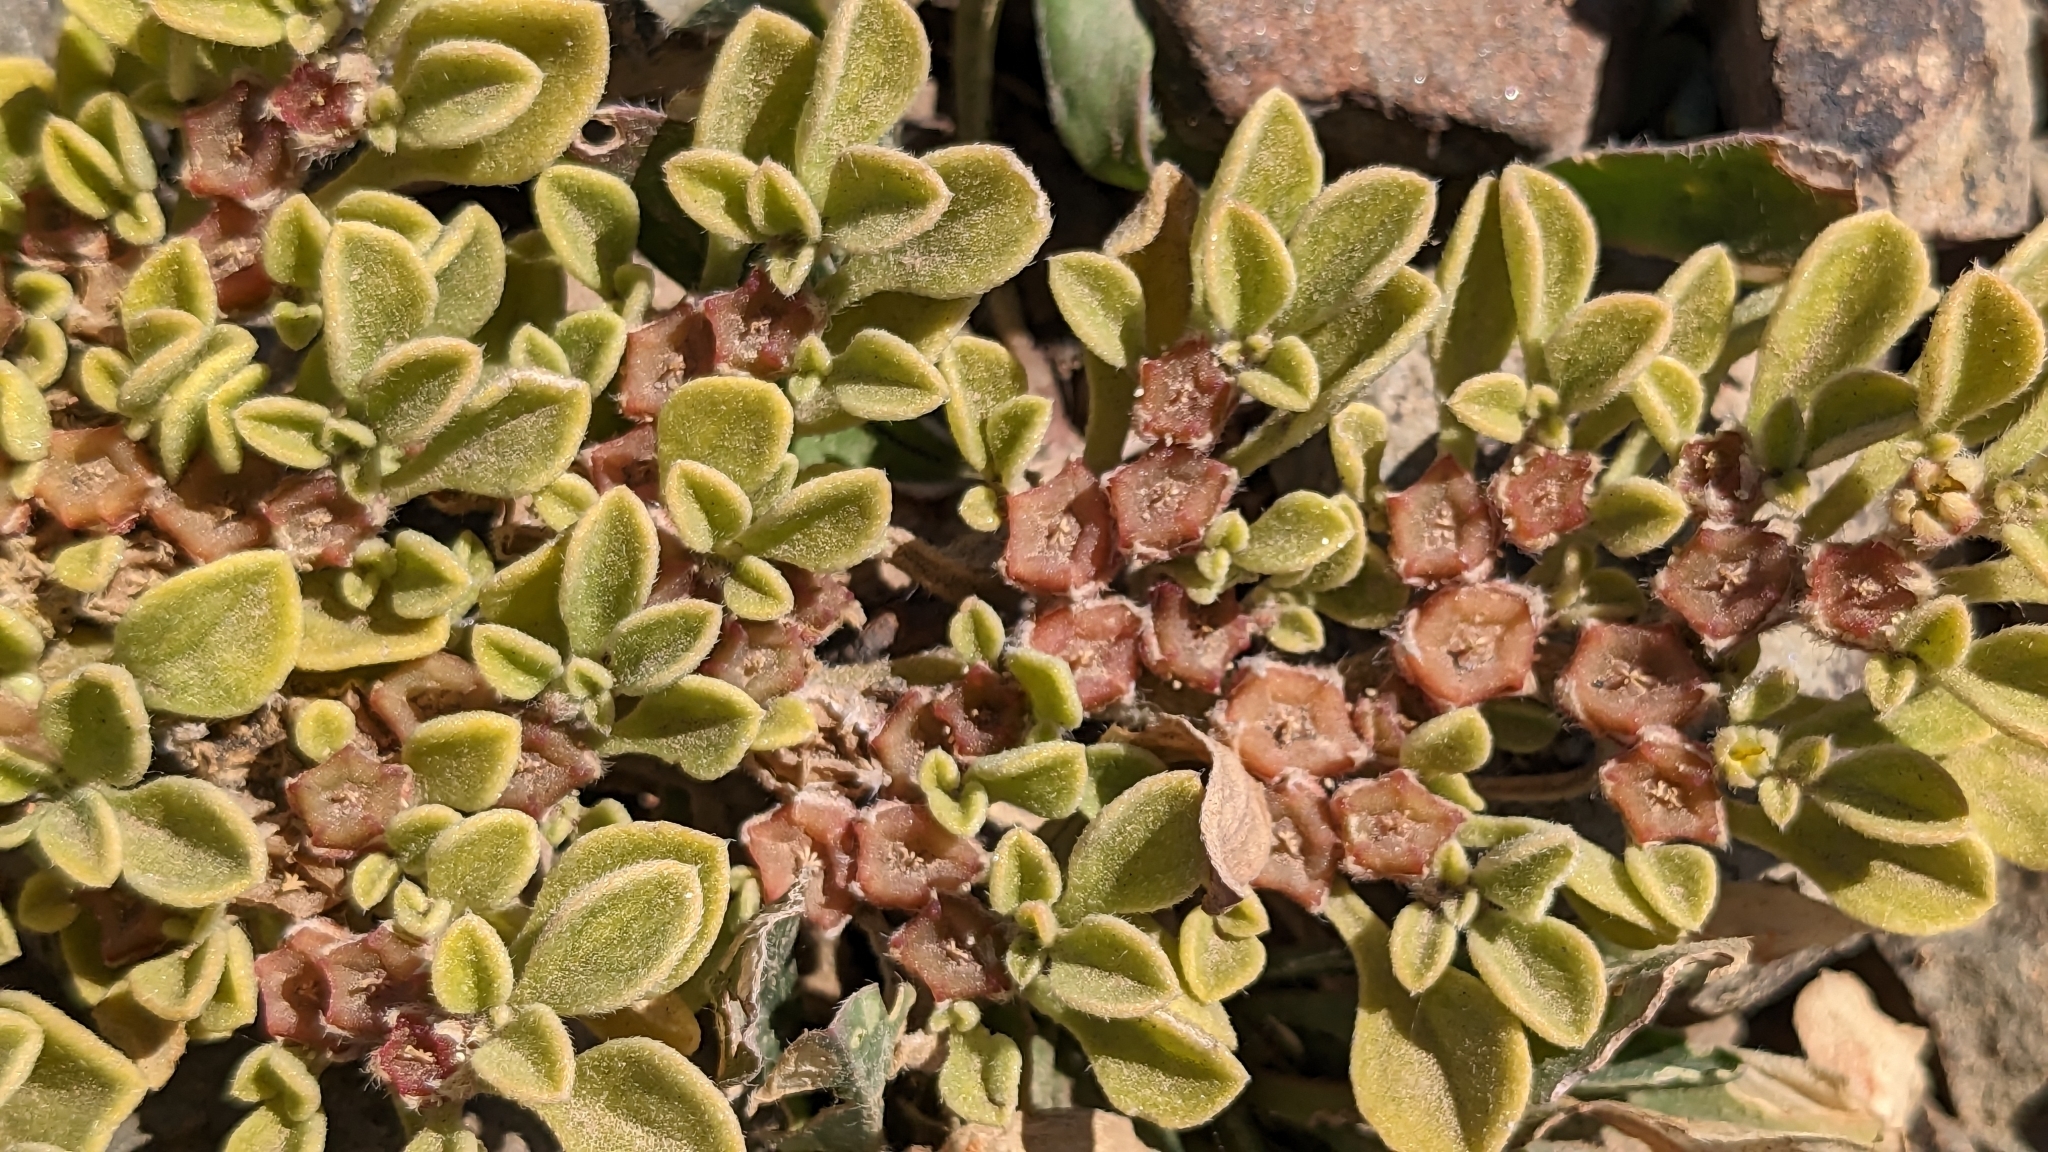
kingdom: Plantae
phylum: Tracheophyta
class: Magnoliopsida
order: Caryophyllales
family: Aizoaceae
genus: Aizoon
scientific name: Aizoon canariense
